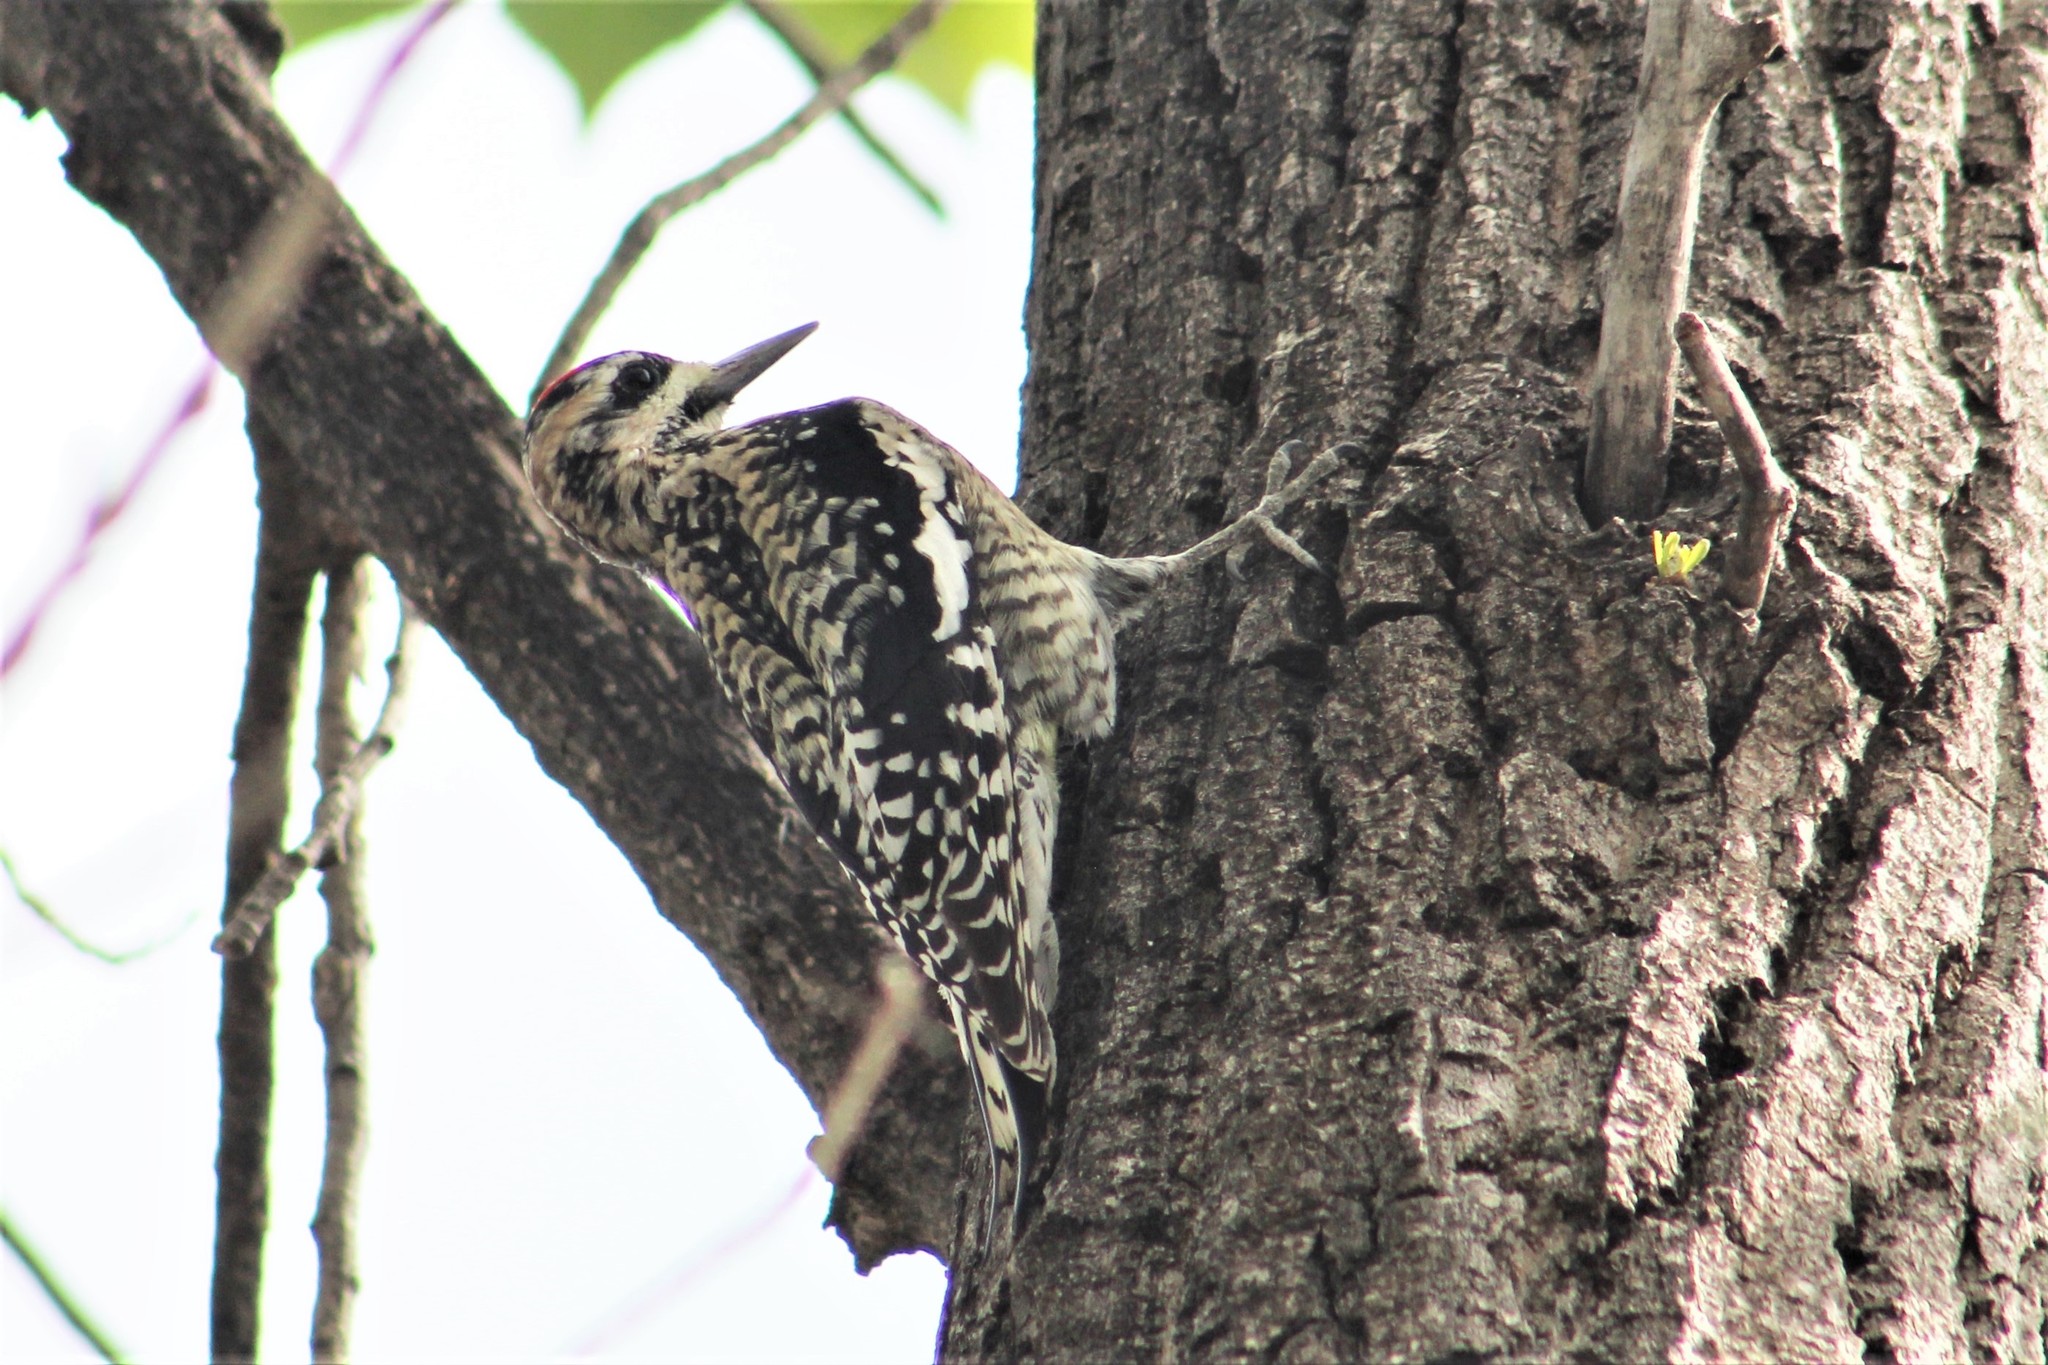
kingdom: Animalia
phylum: Chordata
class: Aves
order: Piciformes
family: Picidae
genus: Sphyrapicus
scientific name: Sphyrapicus varius
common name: Yellow-bellied sapsucker
